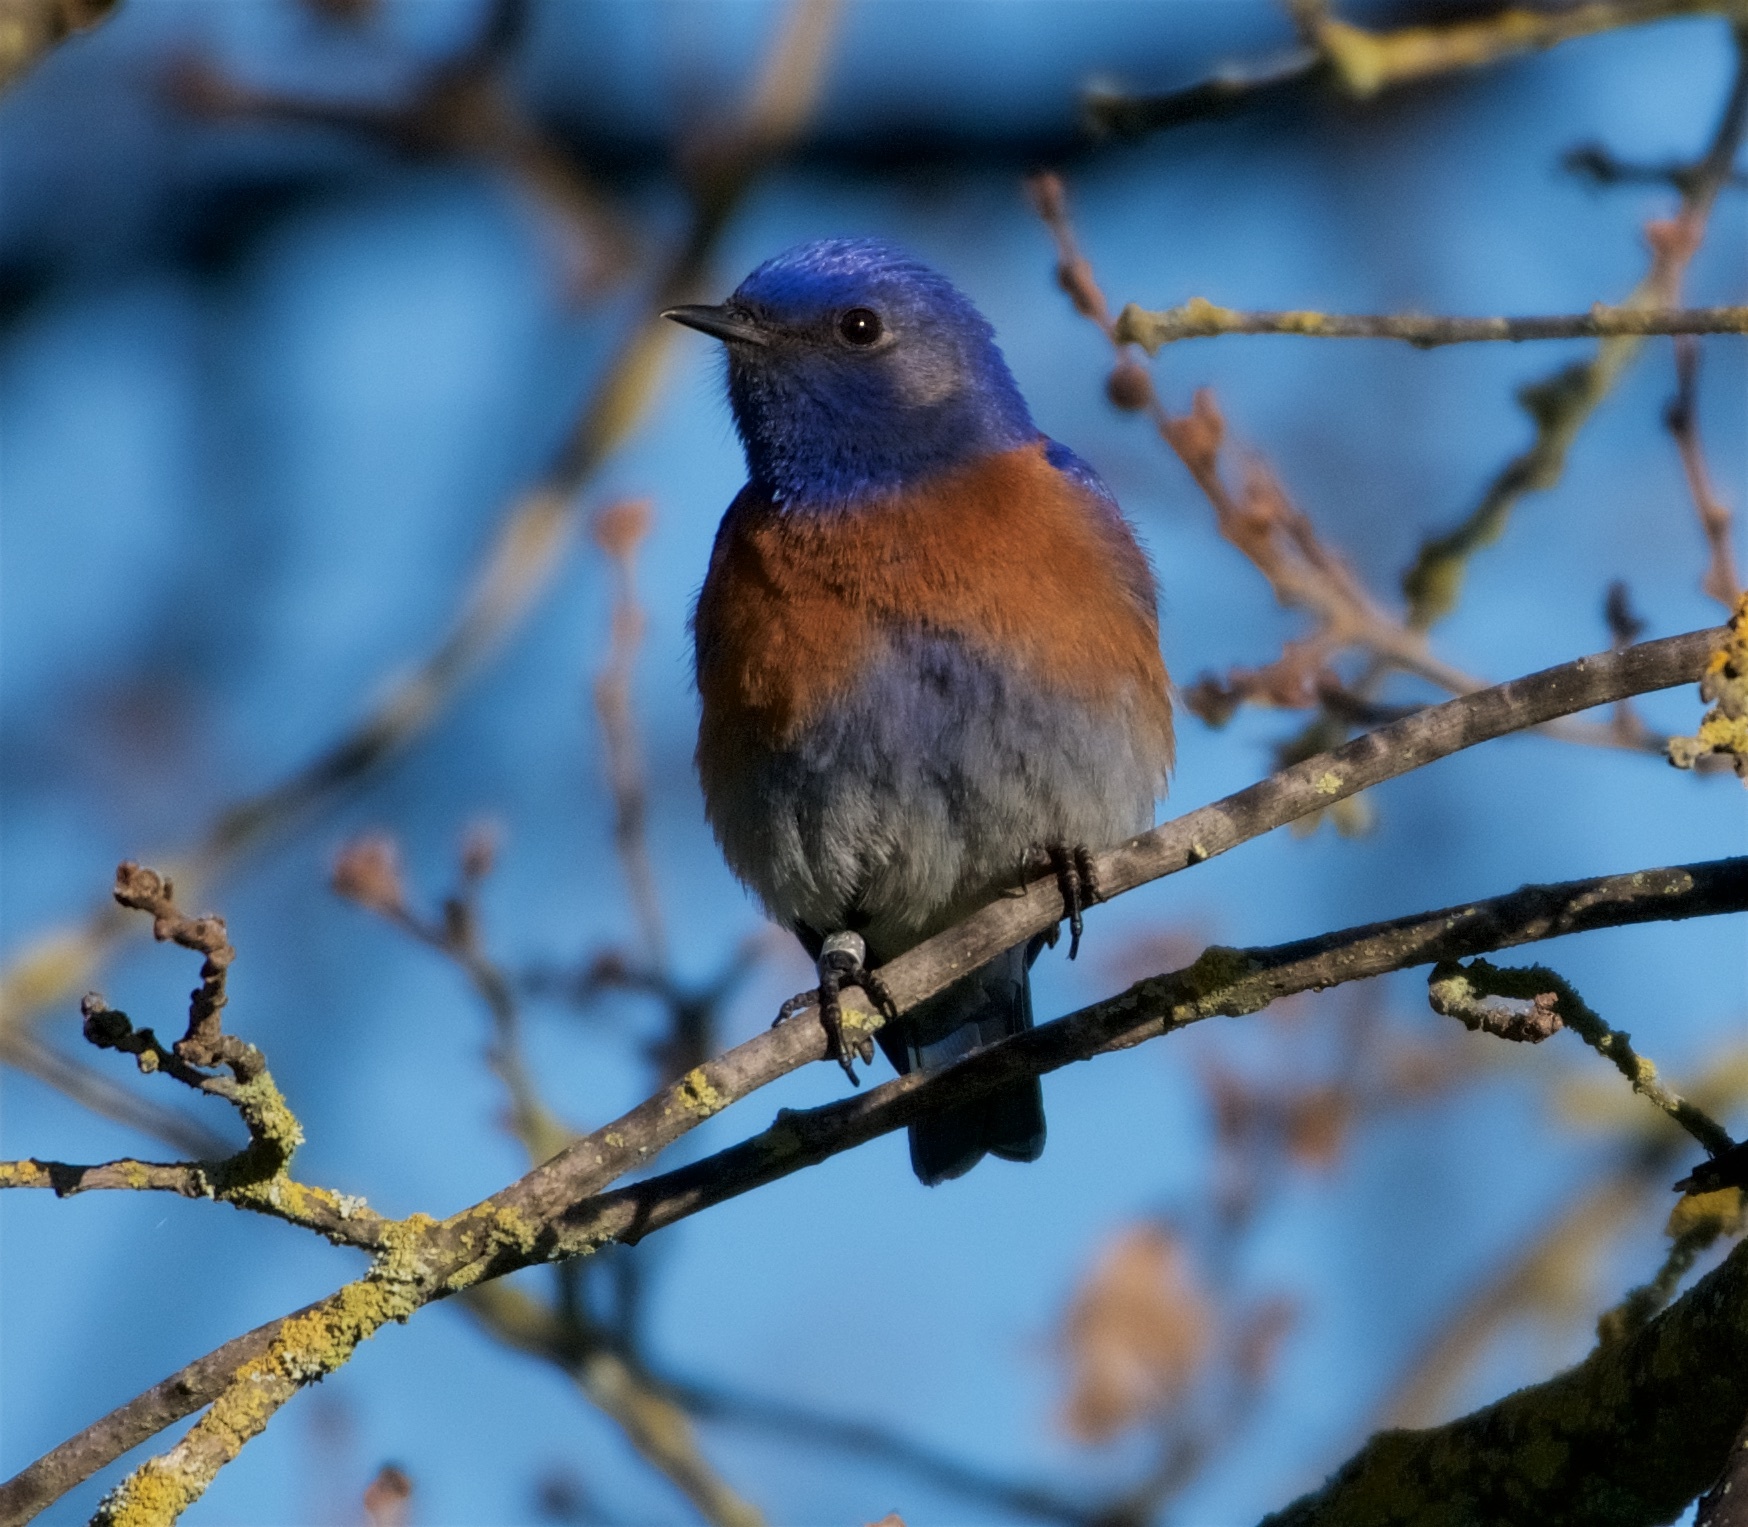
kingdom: Animalia
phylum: Chordata
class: Aves
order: Passeriformes
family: Turdidae
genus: Sialia
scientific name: Sialia mexicana
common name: Western bluebird
